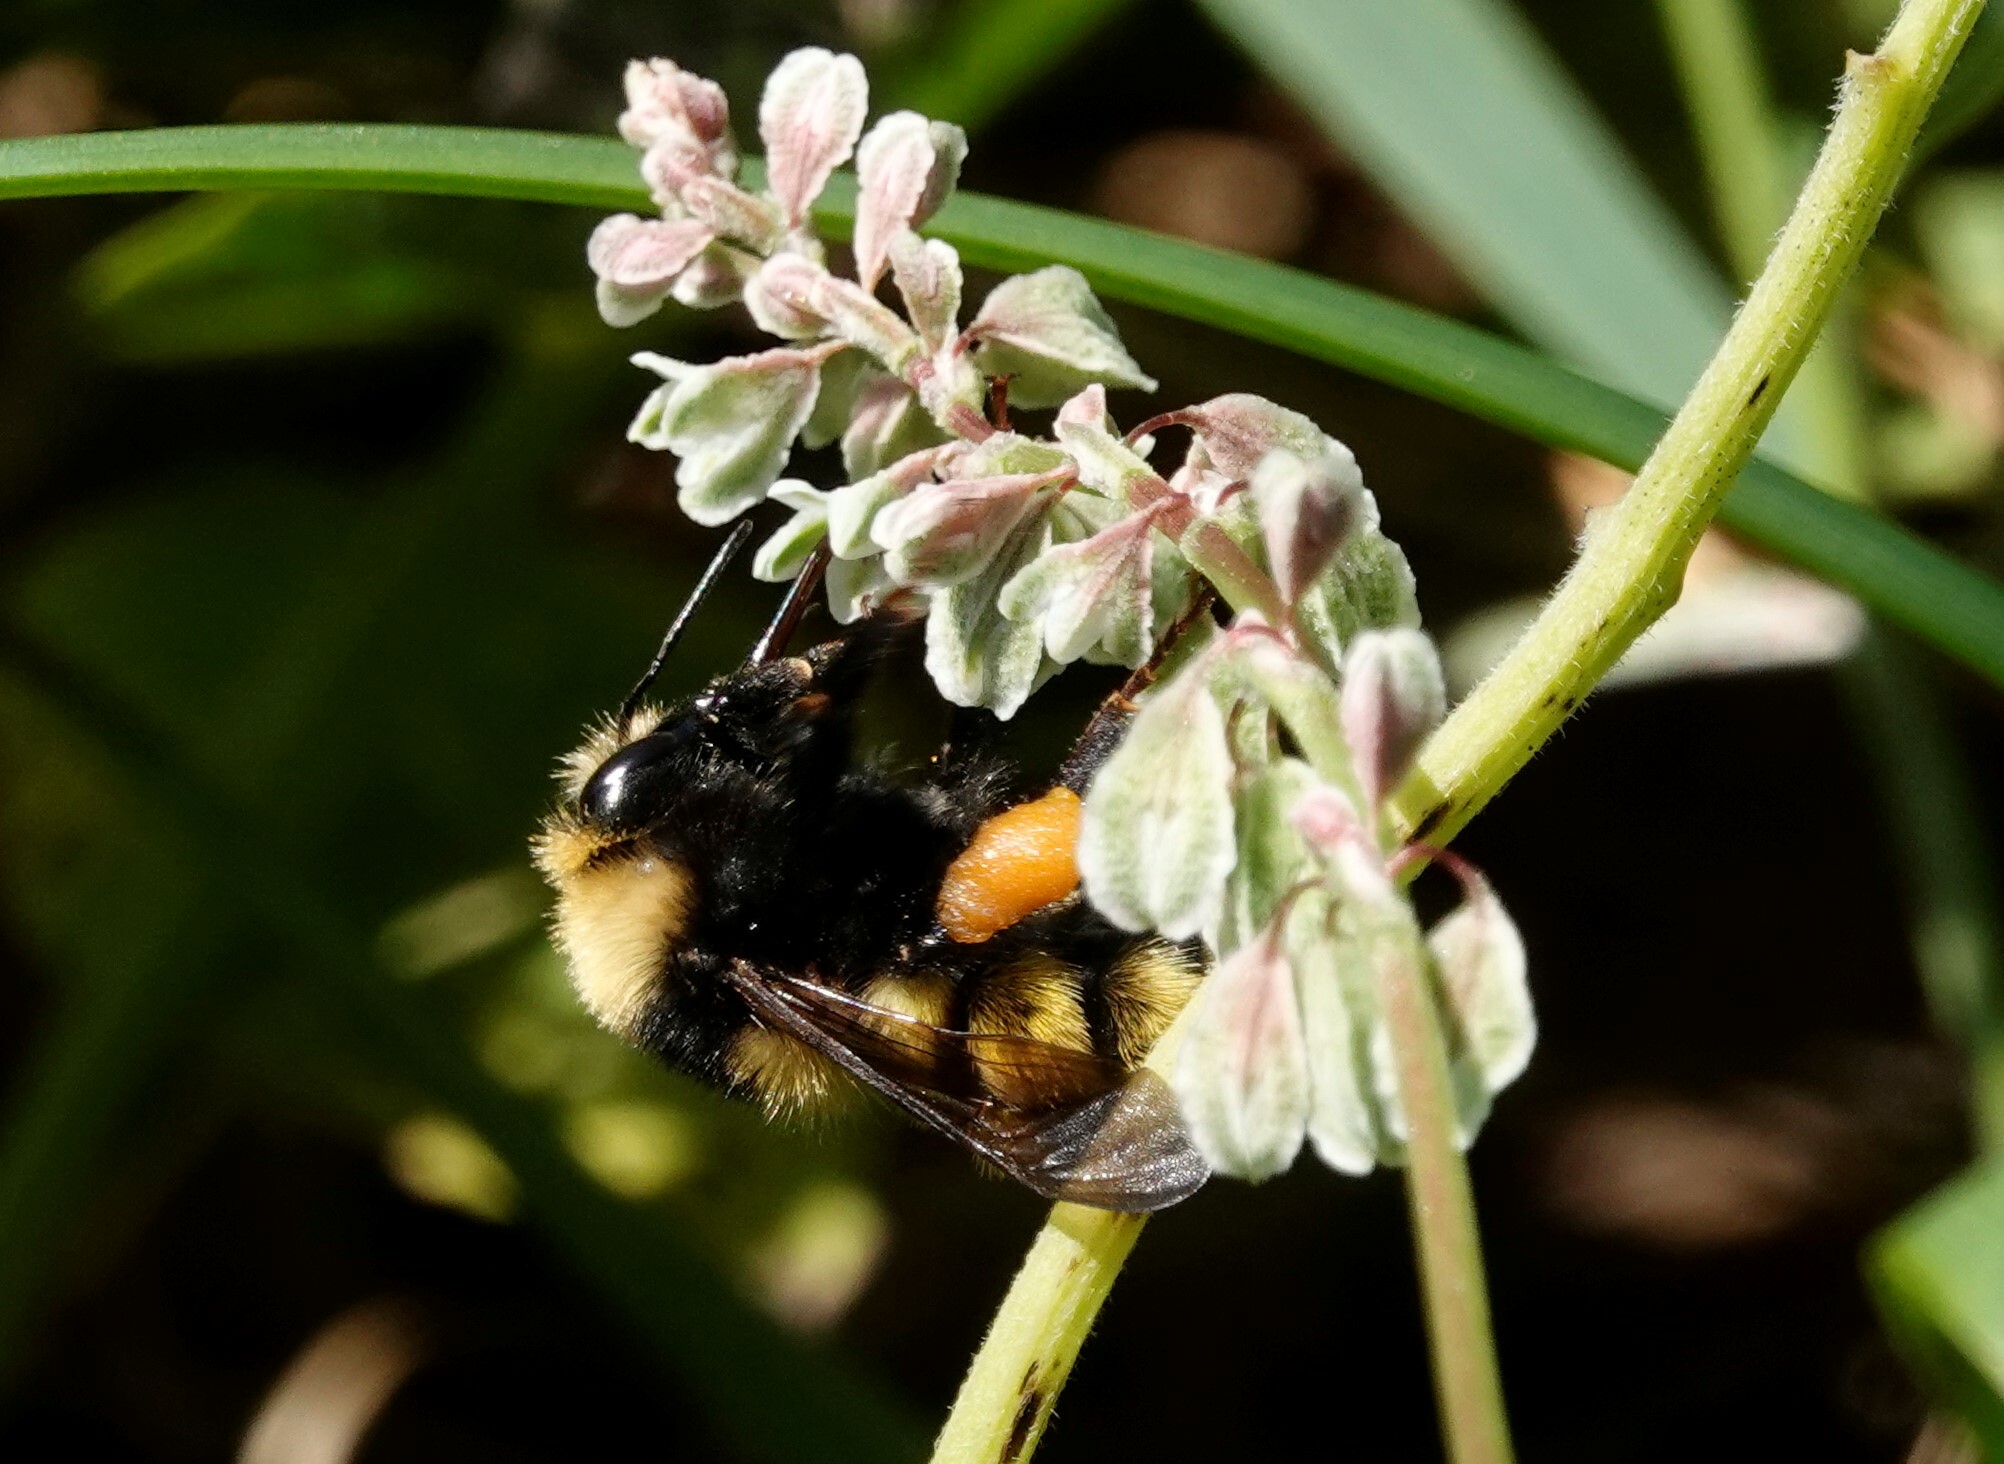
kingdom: Animalia
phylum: Arthropoda
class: Insecta
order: Hymenoptera
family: Apidae
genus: Bombus
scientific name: Bombus borealis
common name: Northern amber bumble bee
